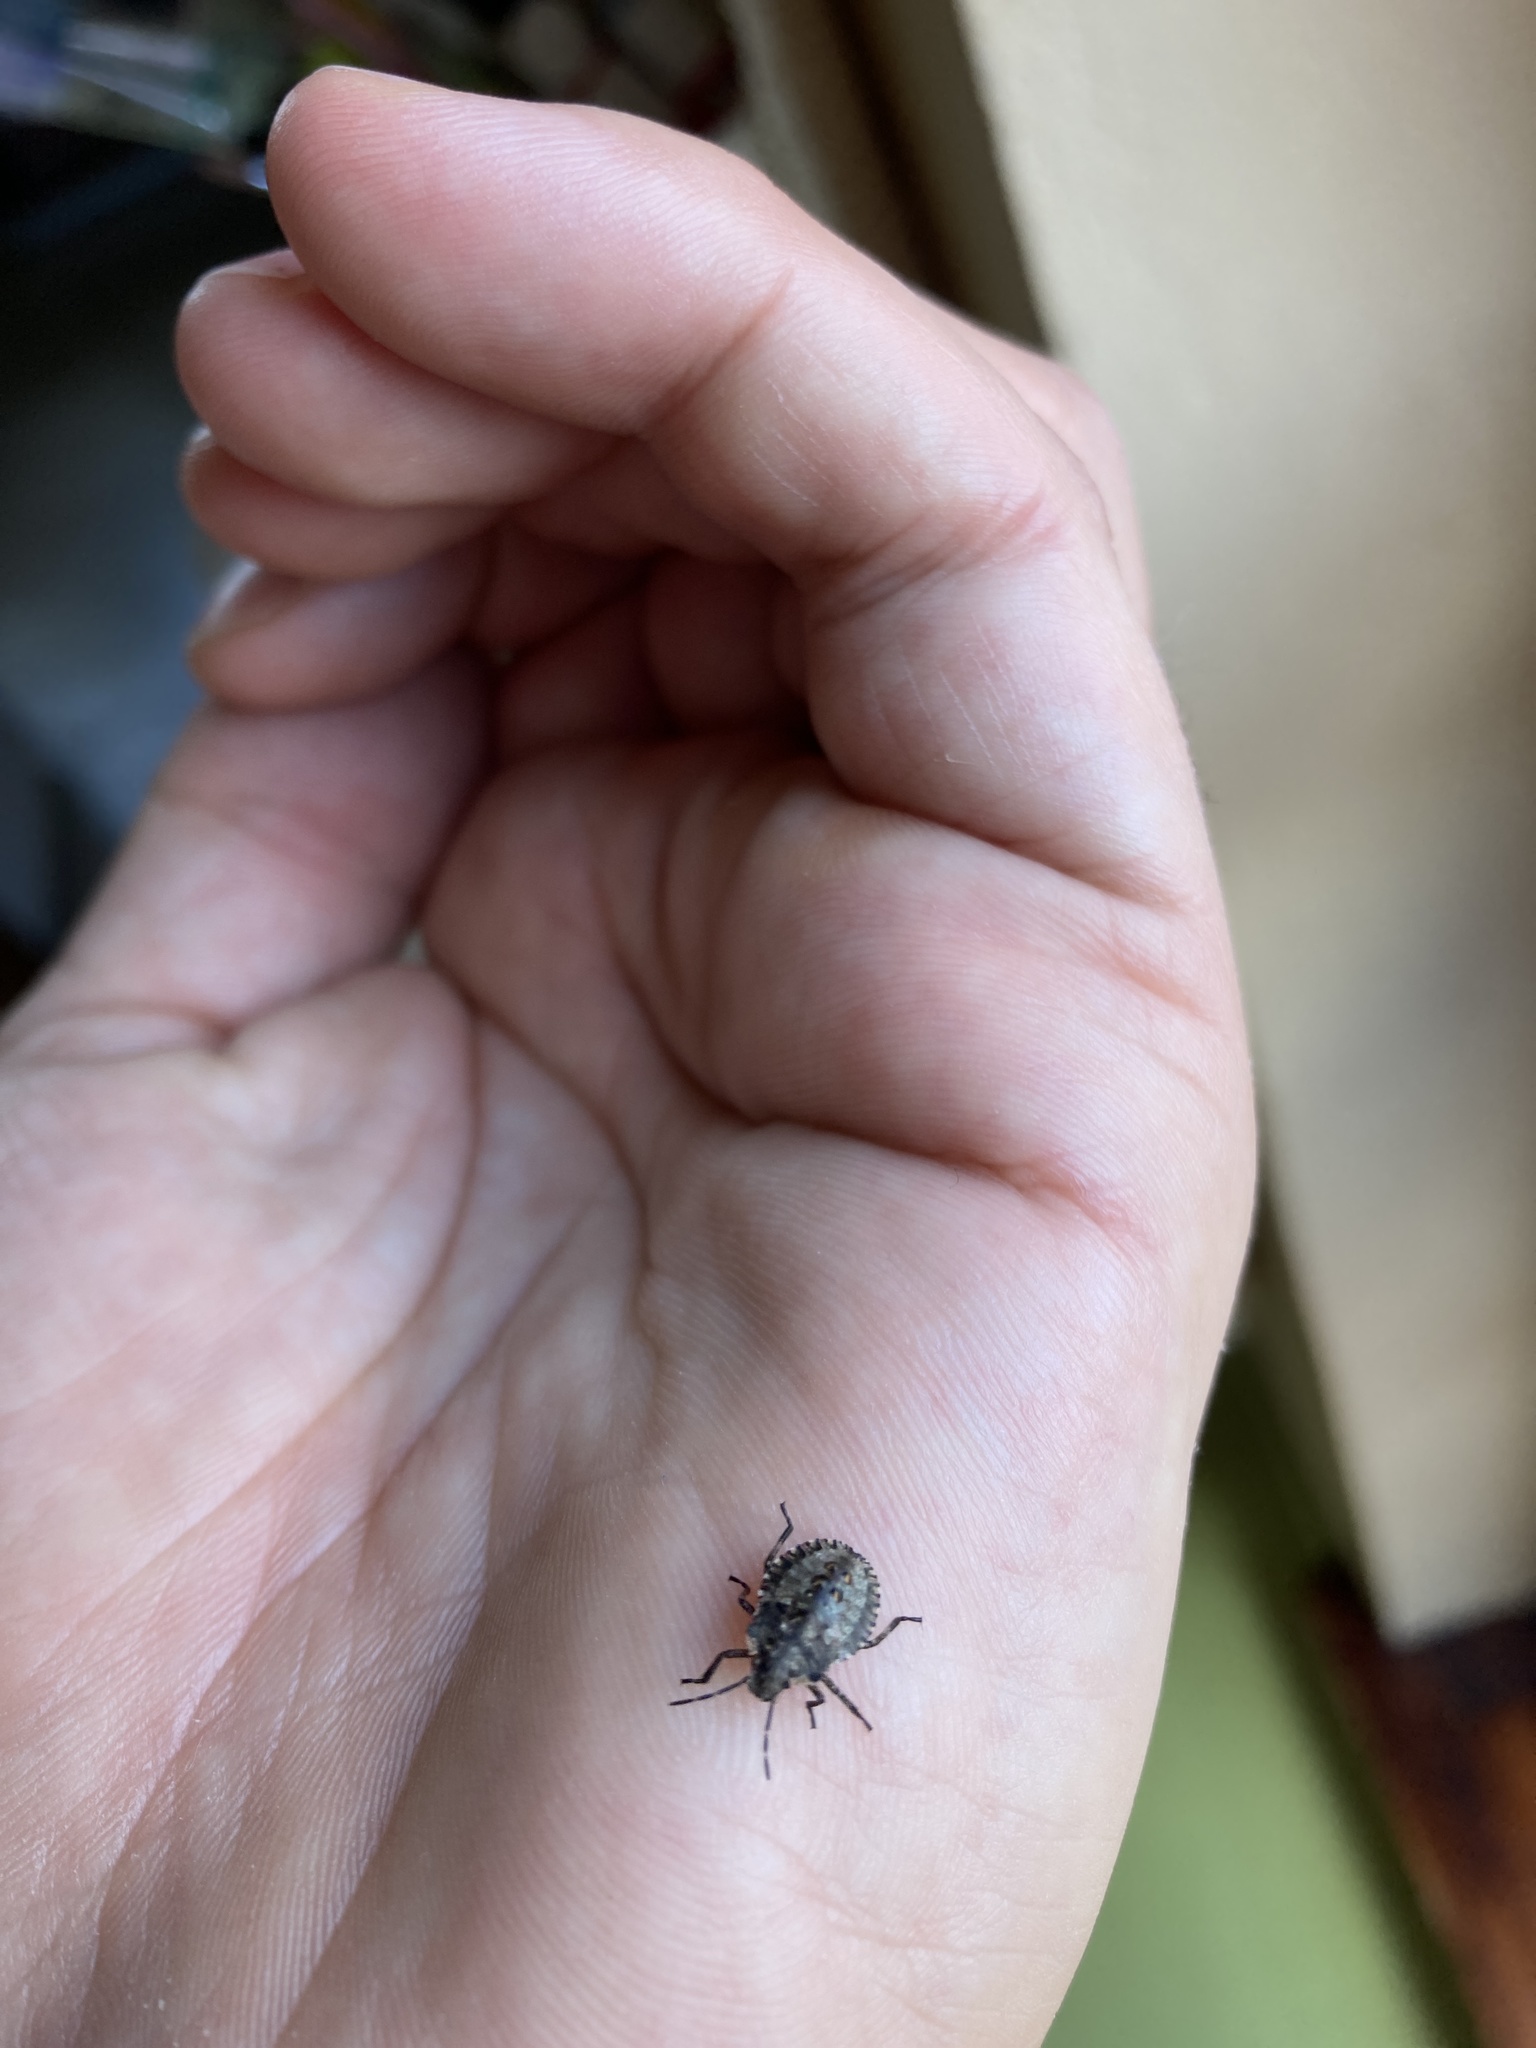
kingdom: Animalia
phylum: Arthropoda
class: Insecta
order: Hemiptera
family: Pentatomidae
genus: Pentatoma
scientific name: Pentatoma rufipes
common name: Forest bug
